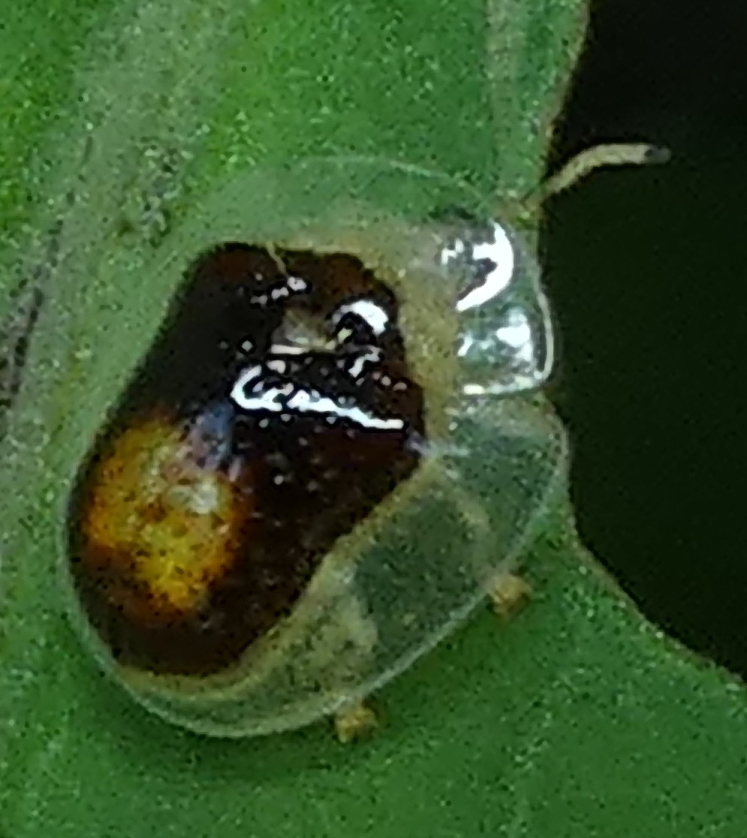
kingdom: Animalia
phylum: Arthropoda
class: Insecta
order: Coleoptera
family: Chrysomelidae
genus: Microctenochira
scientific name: Microctenochira trepida
